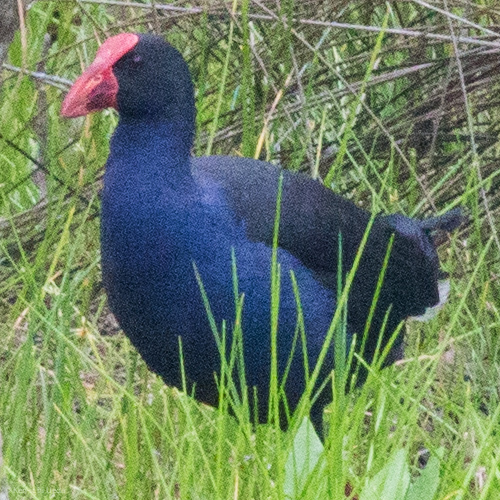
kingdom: Animalia
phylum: Chordata
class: Aves
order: Gruiformes
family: Rallidae
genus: Porphyrio
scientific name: Porphyrio melanotus
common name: Australasian swamphen
